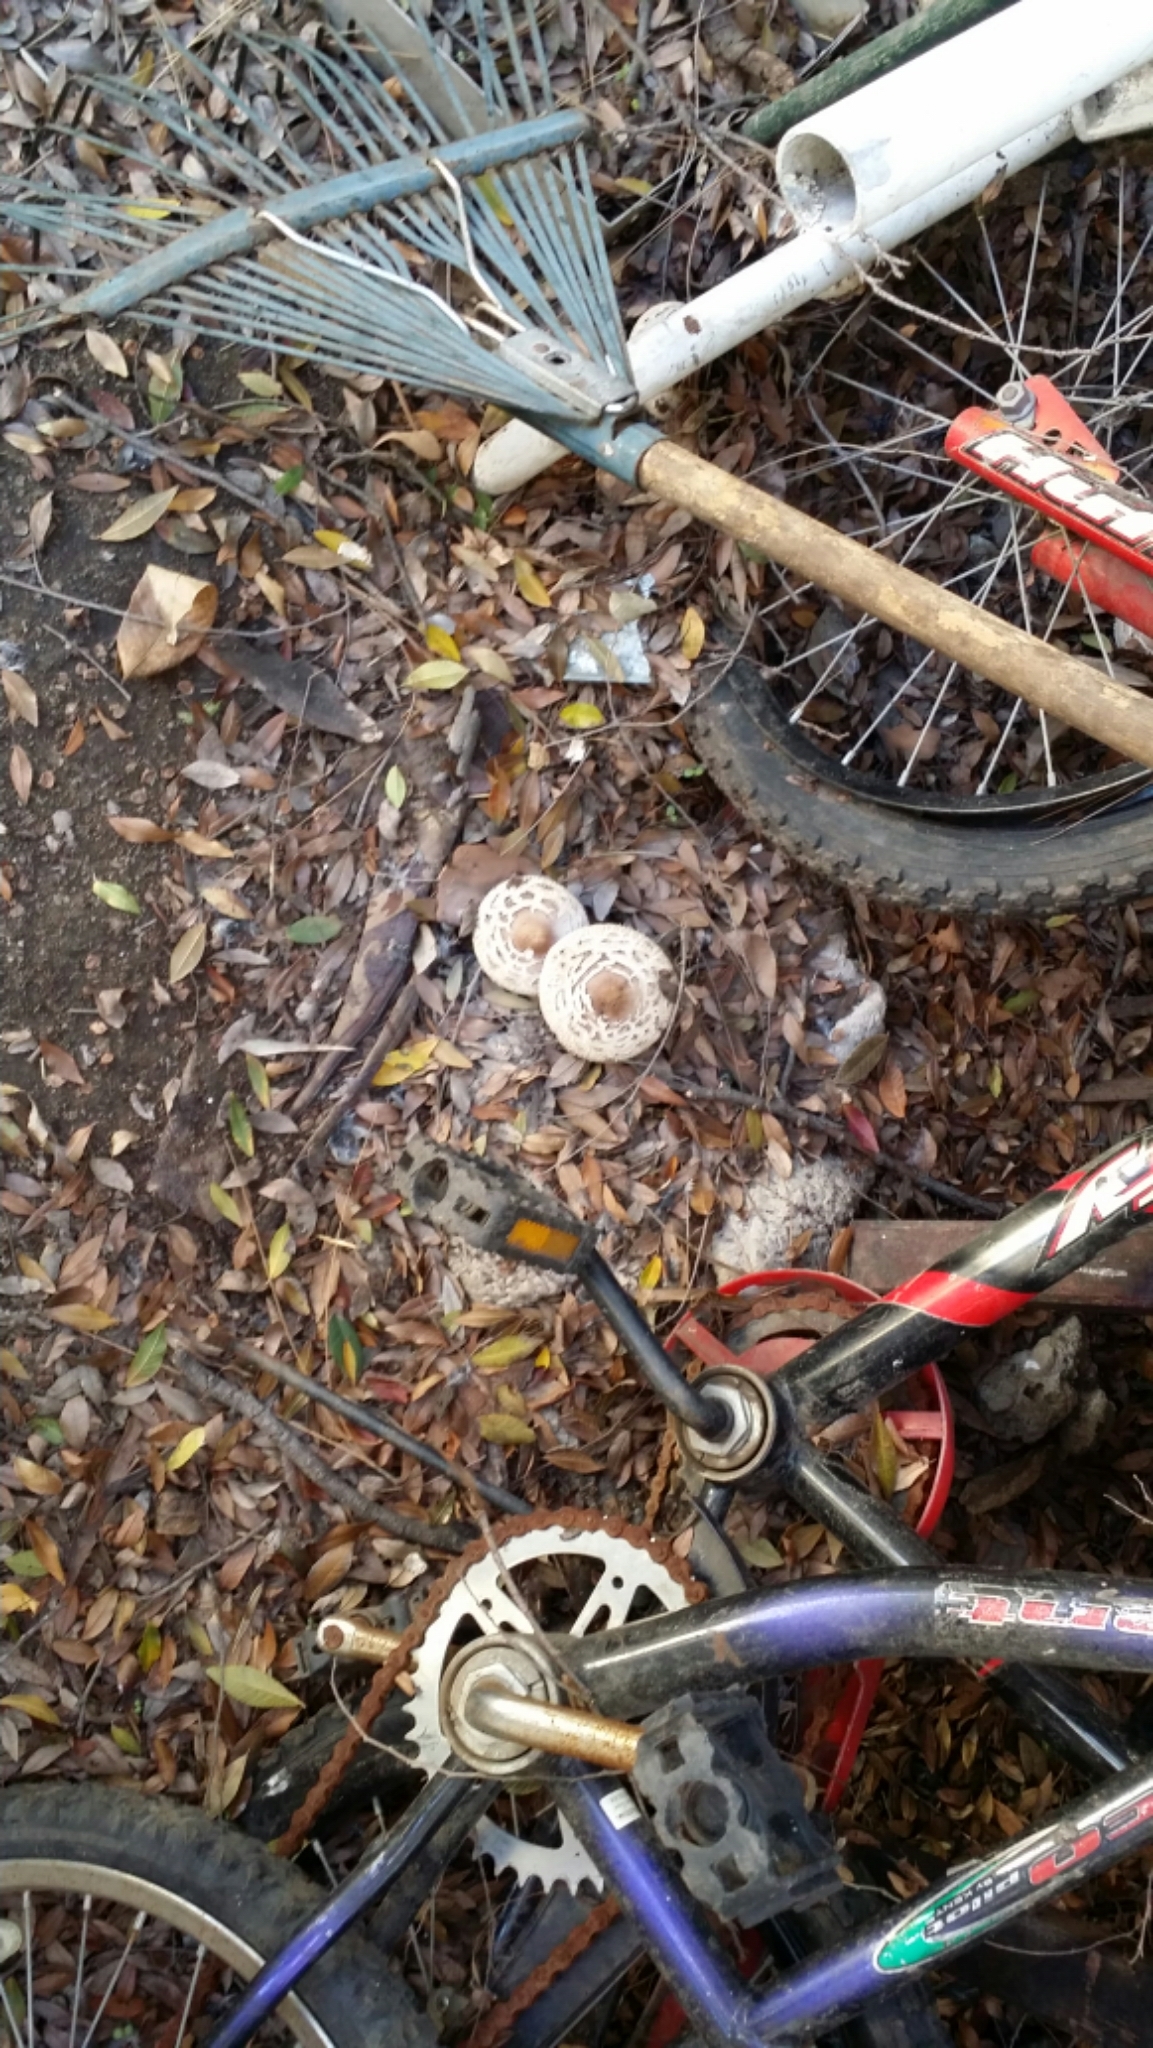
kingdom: Fungi
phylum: Basidiomycota
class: Agaricomycetes
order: Agaricales
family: Agaricaceae
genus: Chlorophyllum
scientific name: Chlorophyllum brunneum
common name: Brown parasol
